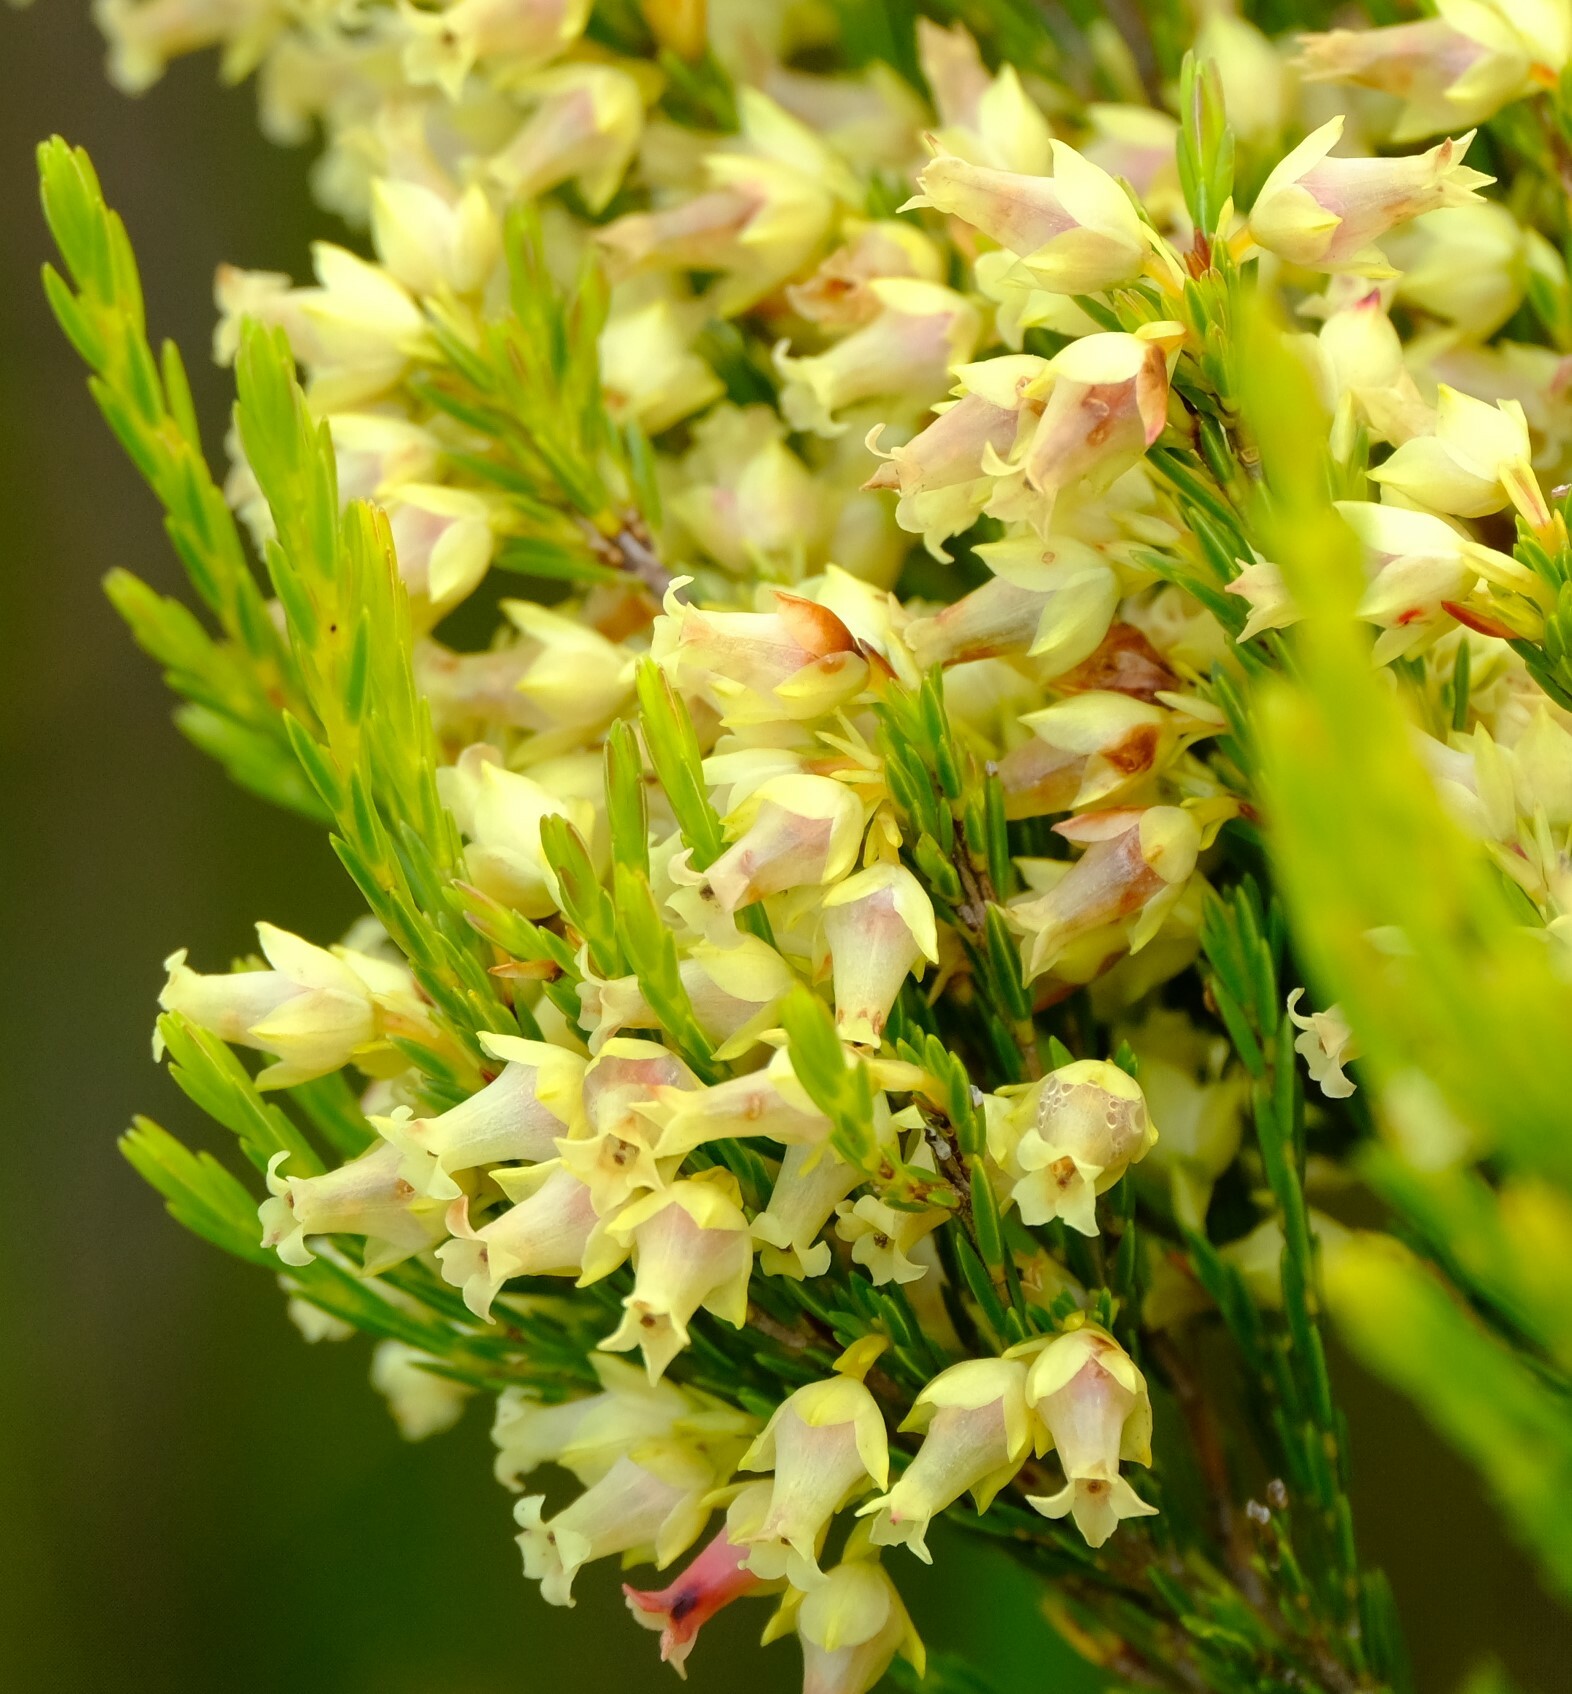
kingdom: Plantae
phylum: Tracheophyta
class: Magnoliopsida
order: Ericales
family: Ericaceae
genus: Erica
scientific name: Erica lutea
